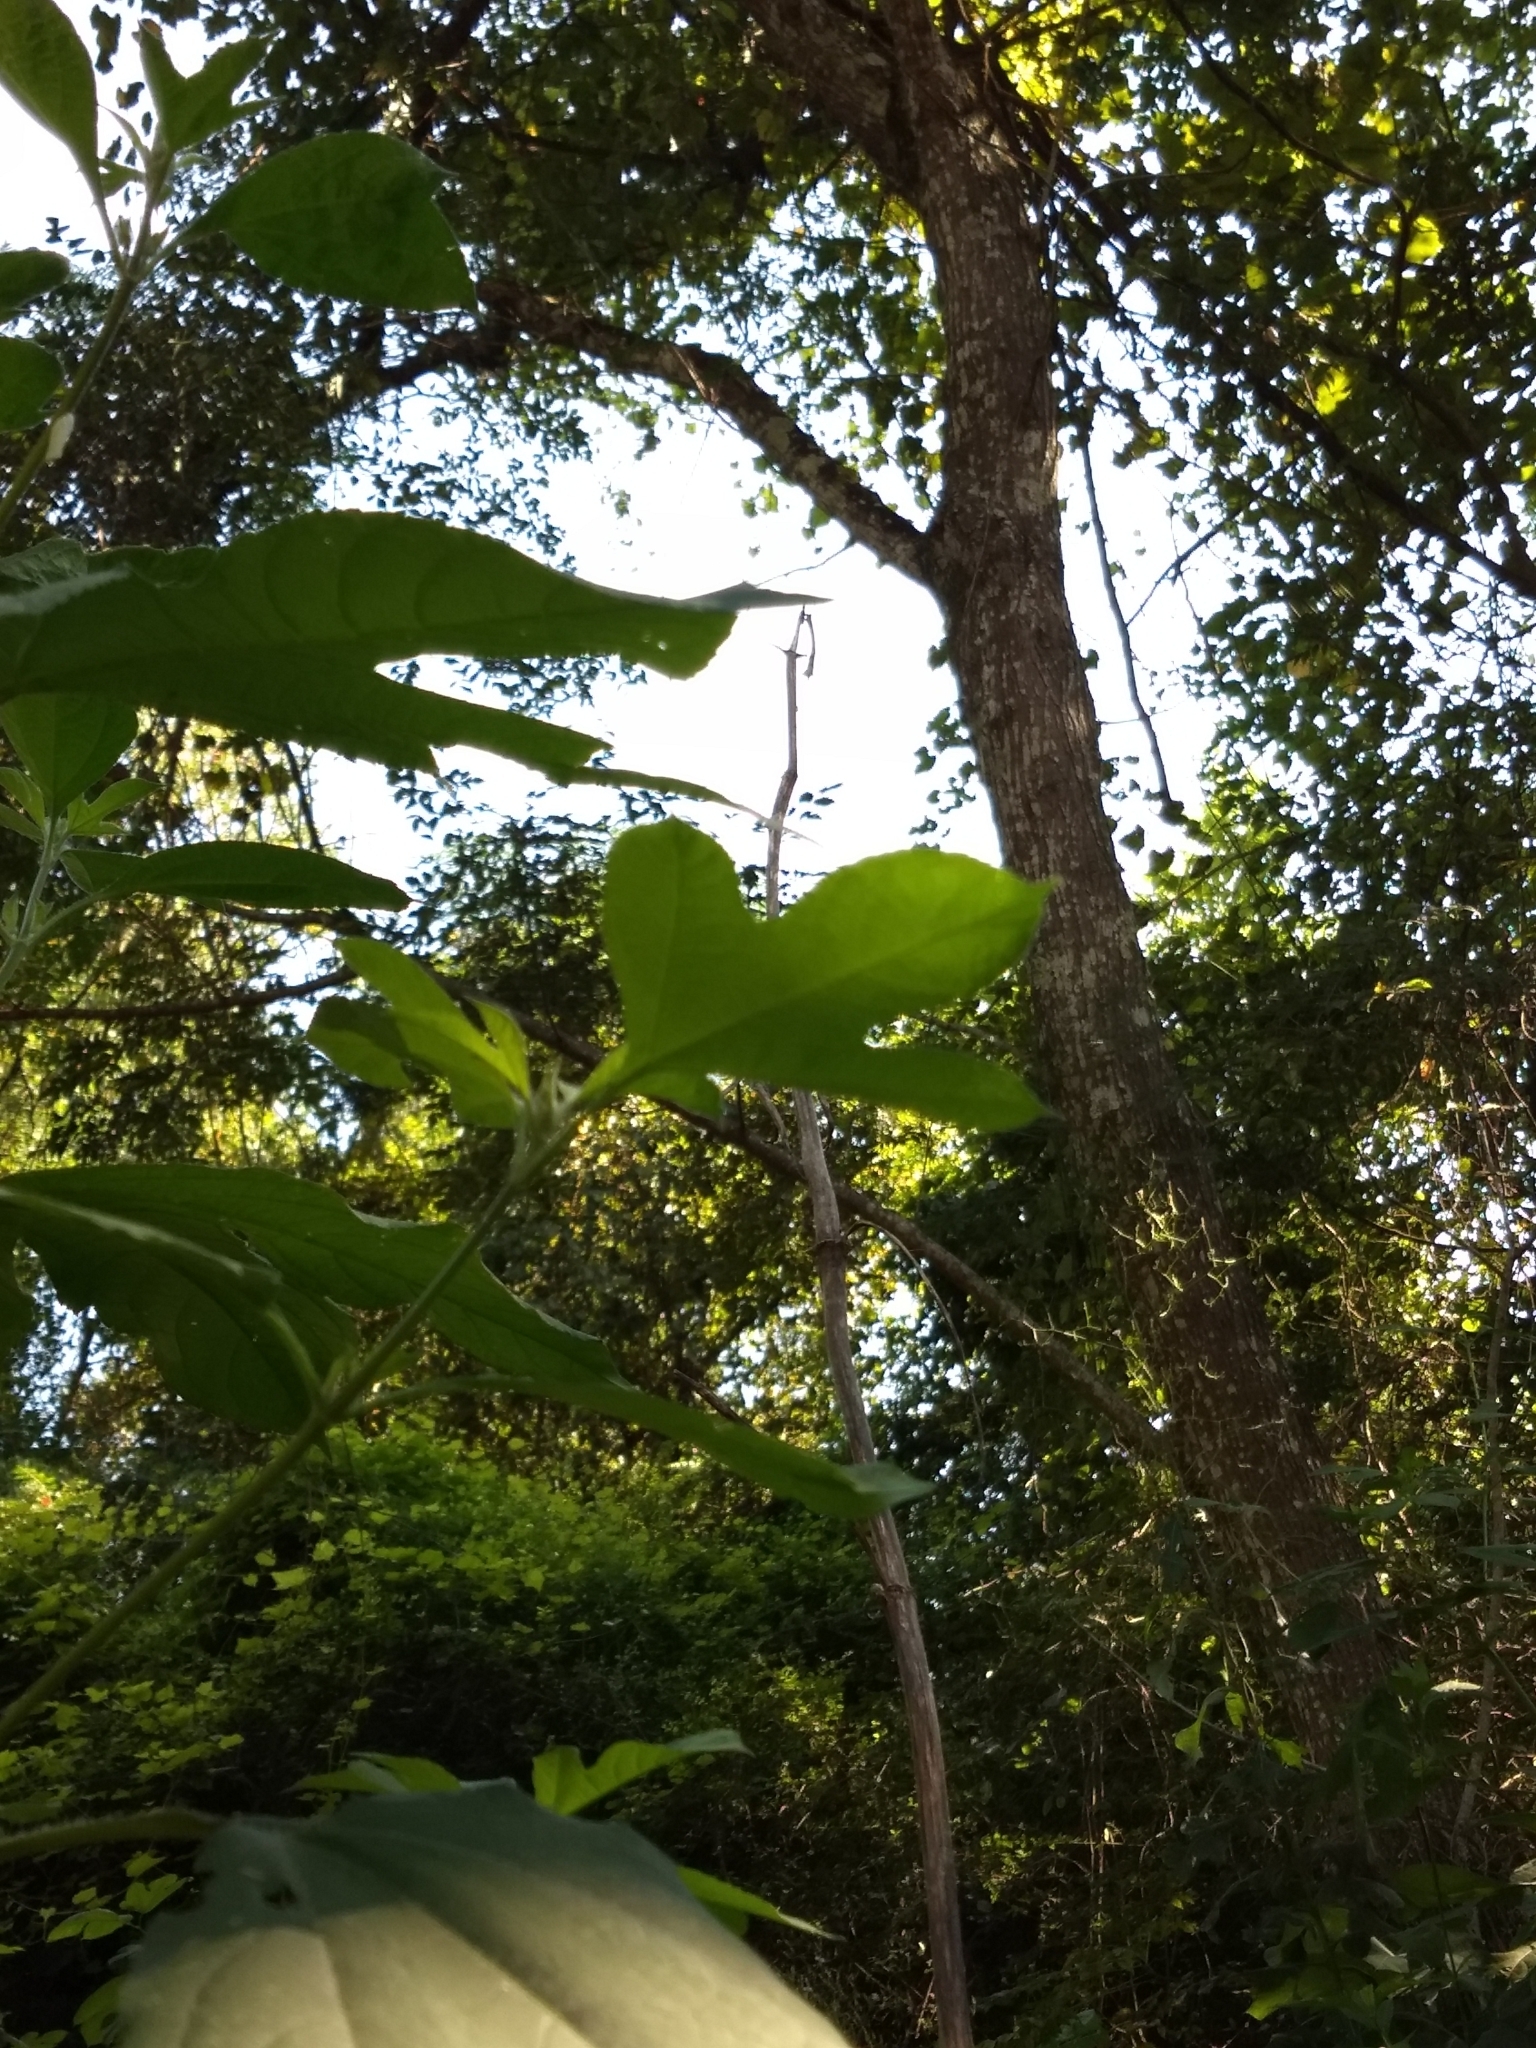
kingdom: Plantae
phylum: Tracheophyta
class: Magnoliopsida
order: Asterales
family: Asteraceae
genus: Ambrosia
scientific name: Ambrosia trifida
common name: Giant ragweed
